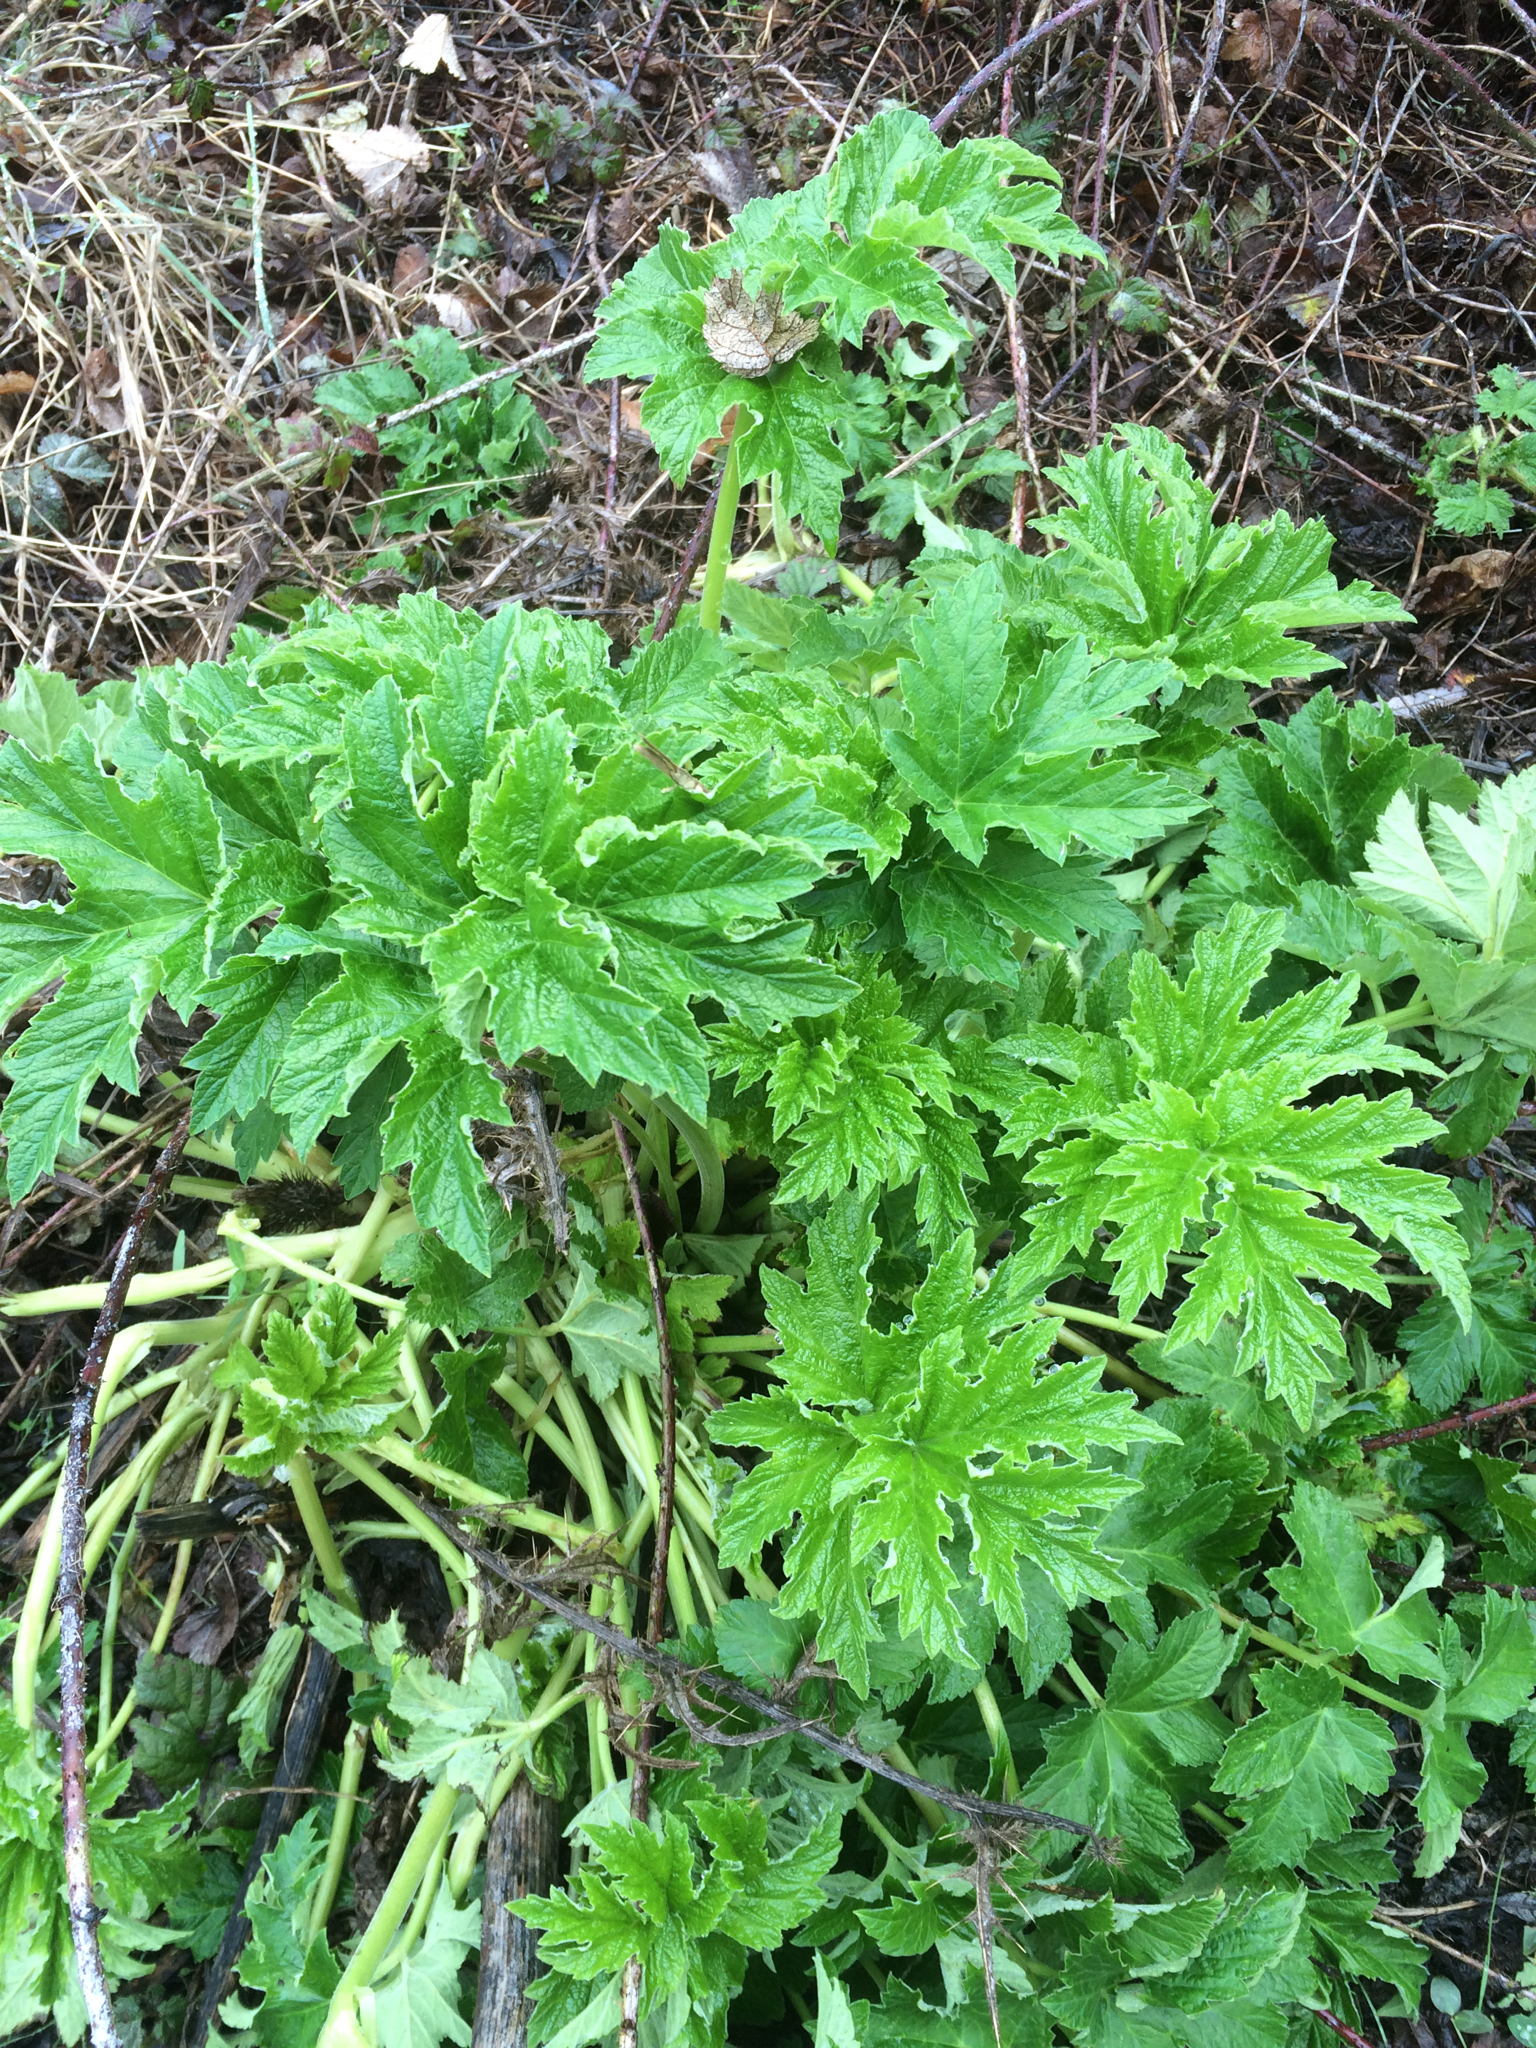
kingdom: Plantae
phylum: Tracheophyta
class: Magnoliopsida
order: Apiales
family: Apiaceae
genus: Heracleum
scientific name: Heracleum maximum
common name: American cow parsnip
